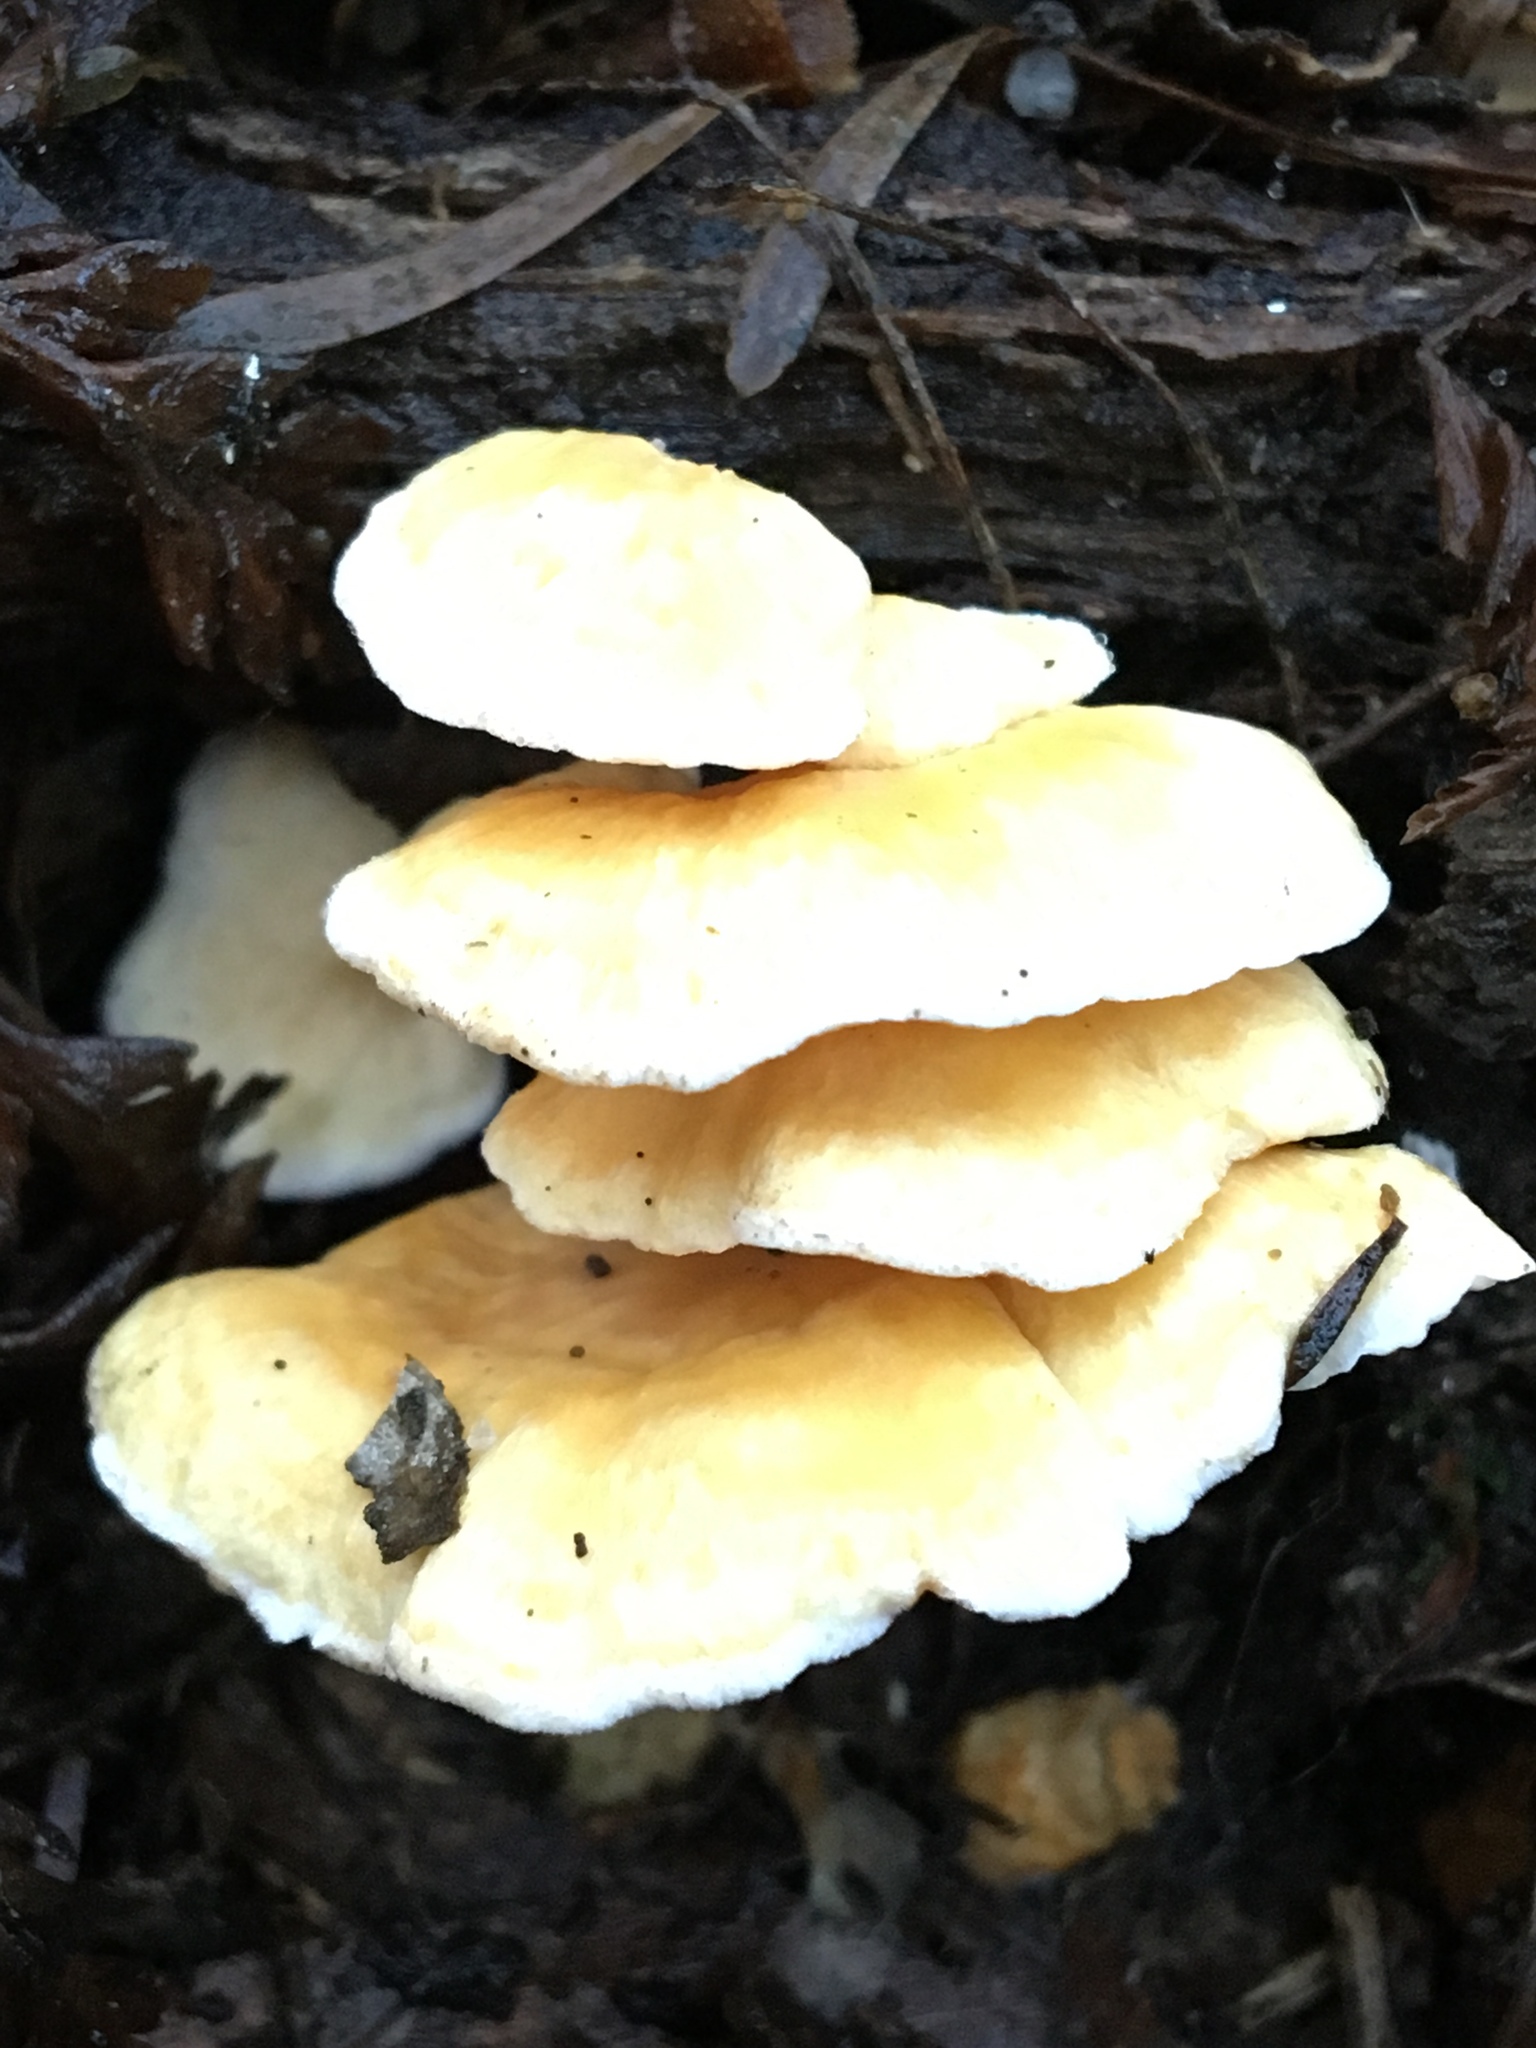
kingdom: Fungi
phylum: Basidiomycota
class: Agaricomycetes
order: Amylocorticiales
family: Amylocorticiaceae
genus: Podoserpula
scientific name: Podoserpula pusio
